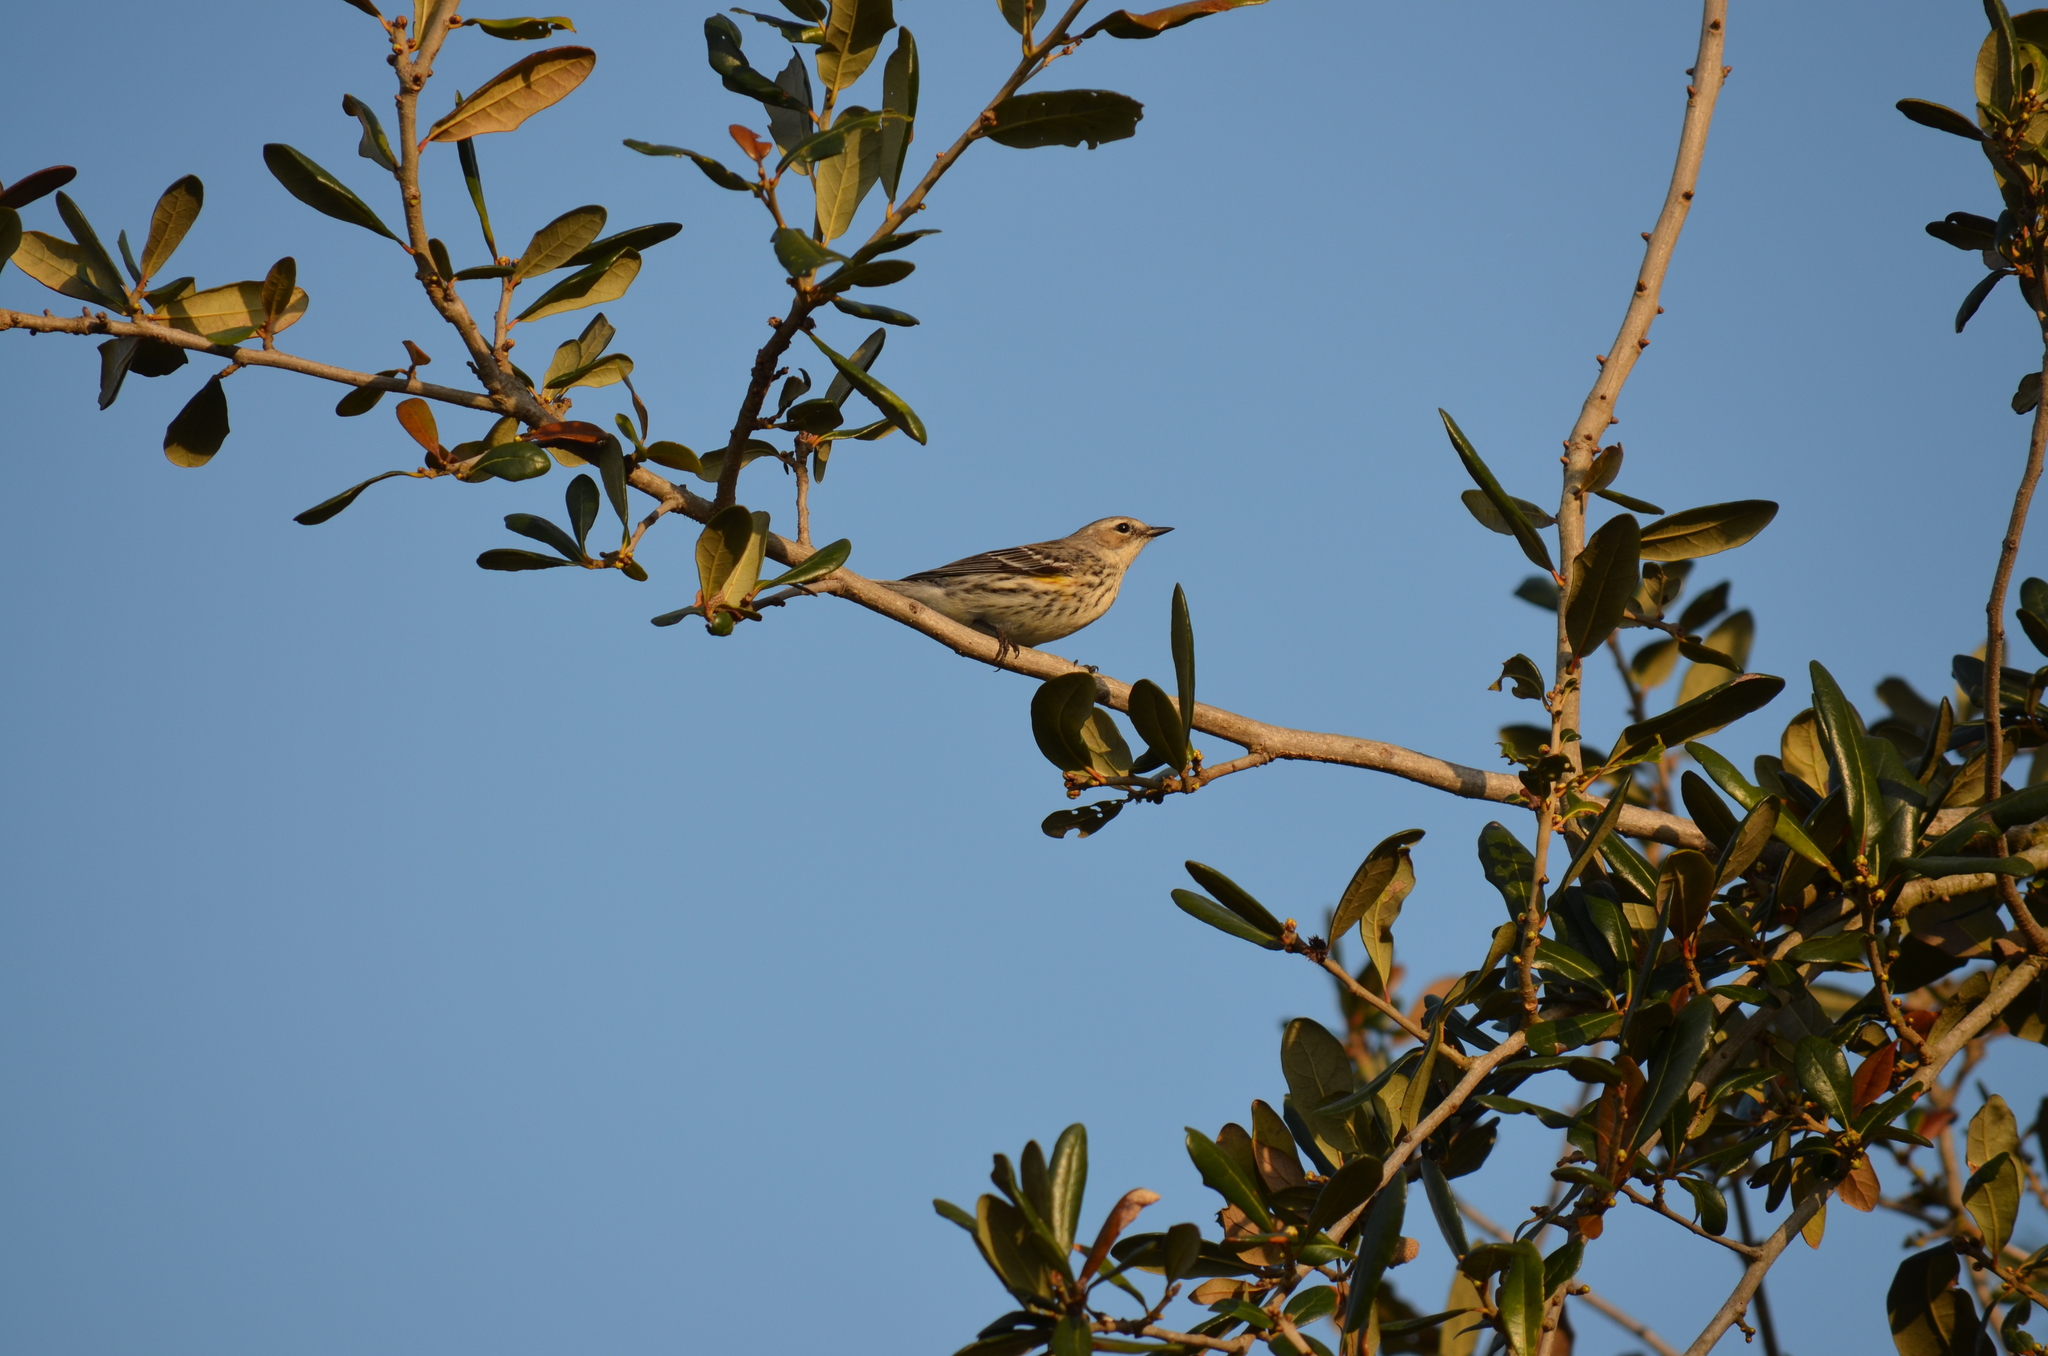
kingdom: Animalia
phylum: Chordata
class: Aves
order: Passeriformes
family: Parulidae
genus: Setophaga
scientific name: Setophaga coronata
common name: Myrtle warbler
